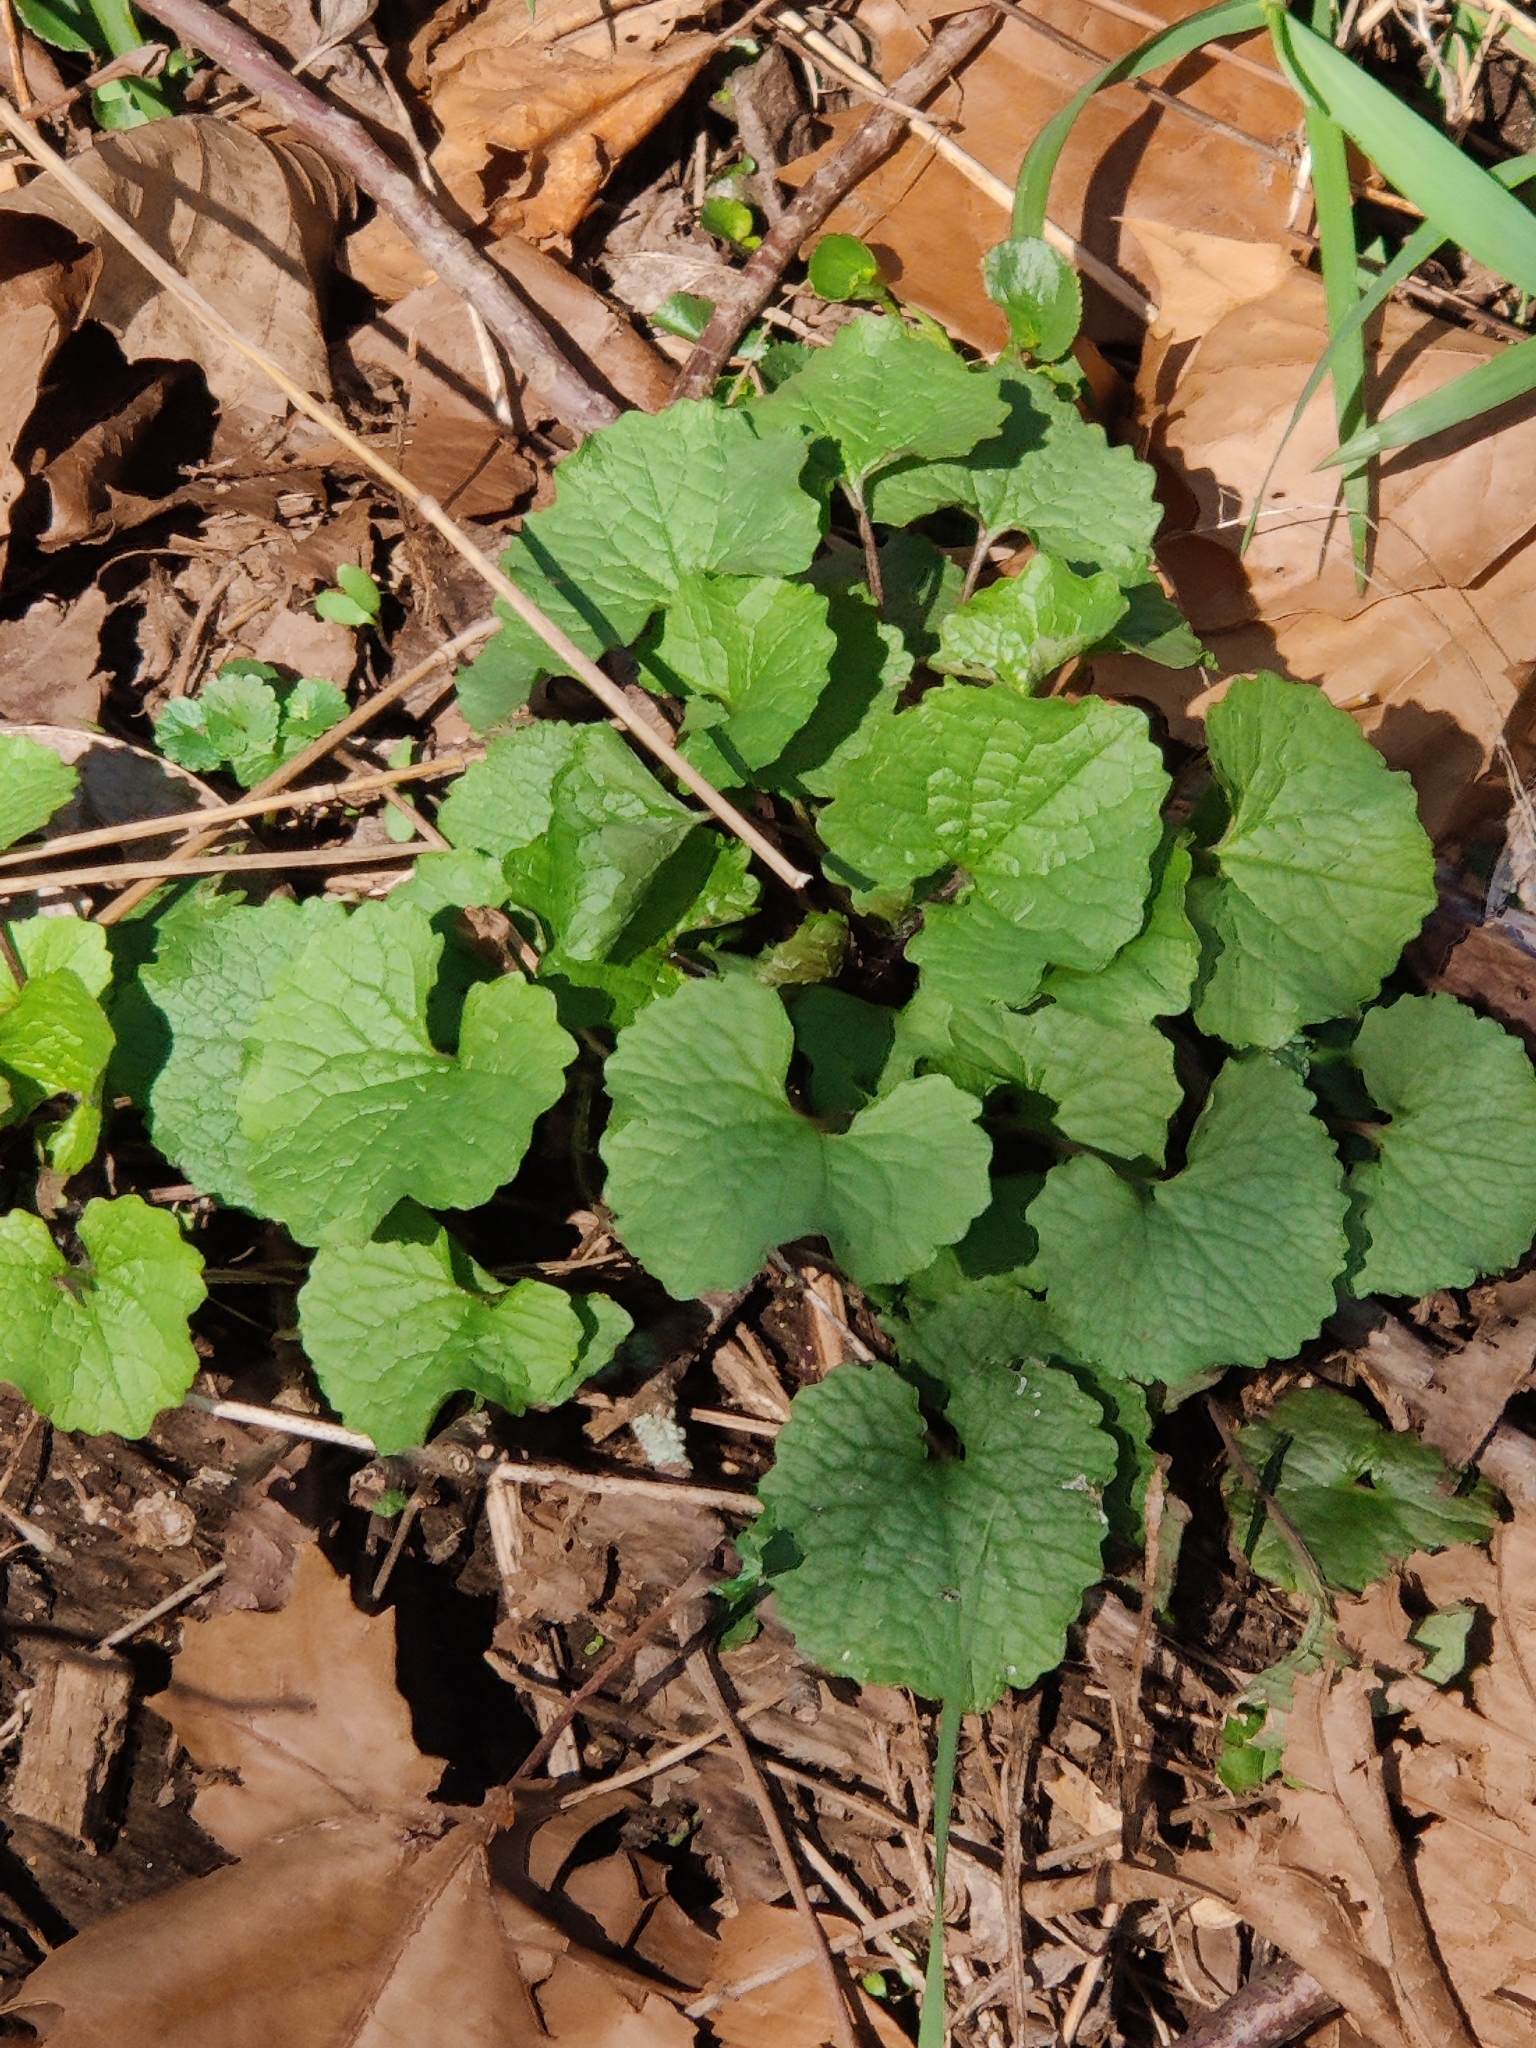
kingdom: Plantae
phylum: Tracheophyta
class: Magnoliopsida
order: Brassicales
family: Brassicaceae
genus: Alliaria
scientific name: Alliaria petiolata
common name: Garlic mustard
